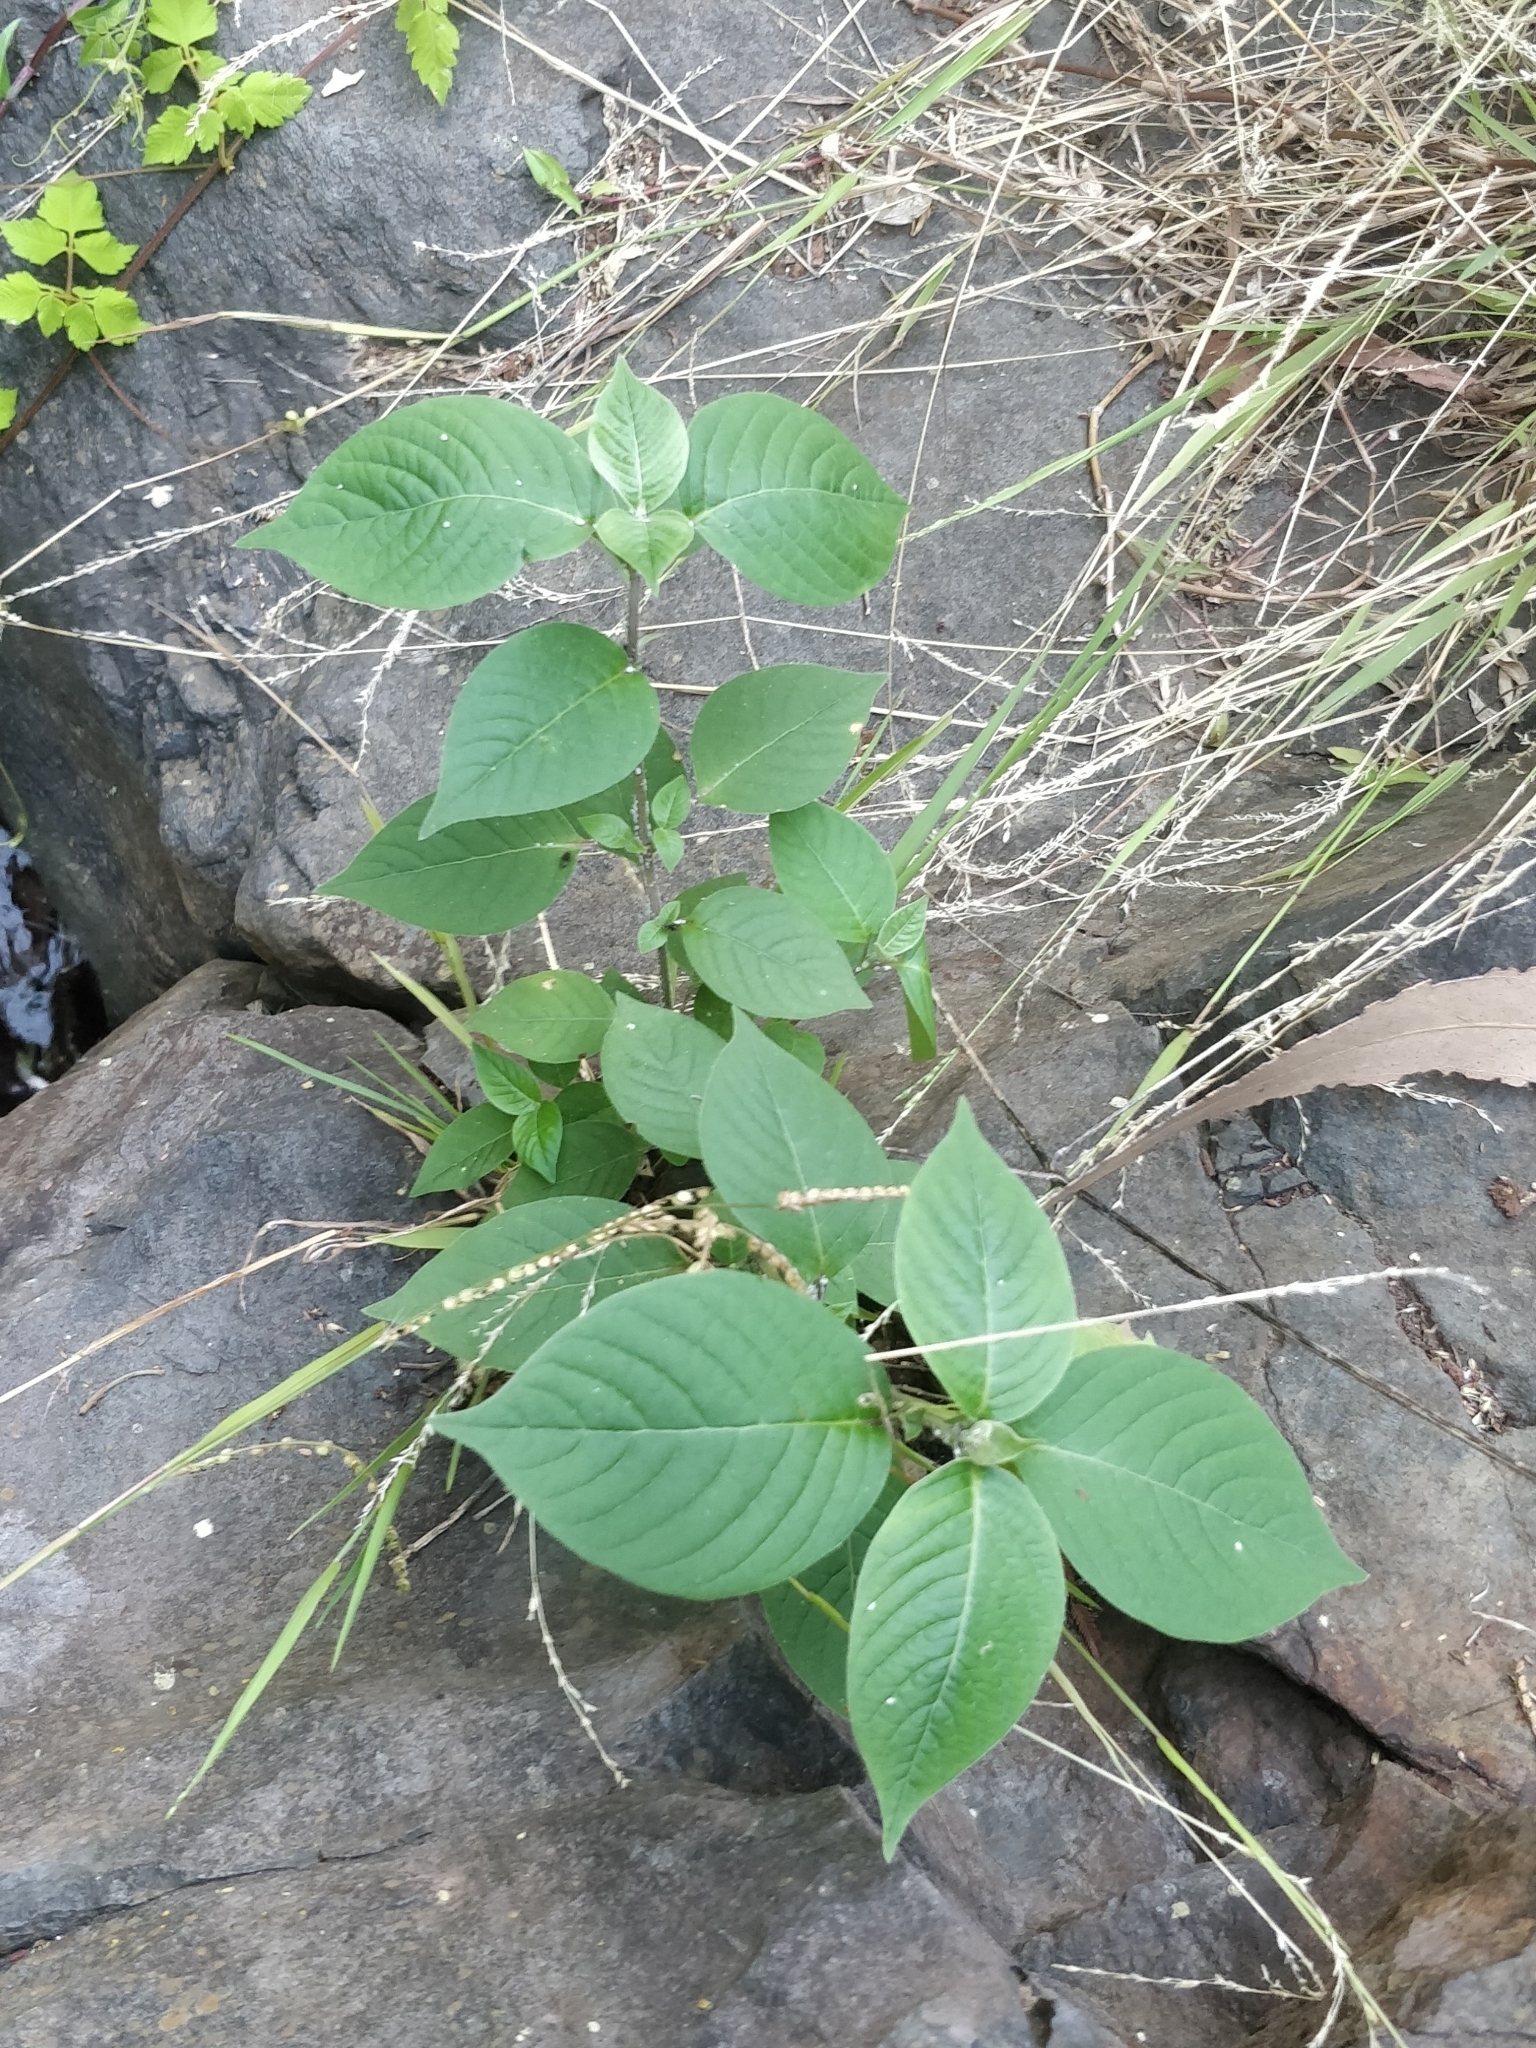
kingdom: Plantae
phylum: Tracheophyta
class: Magnoliopsida
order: Caryophyllales
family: Amaranthaceae
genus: Achyranthes
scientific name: Achyranthes aspera
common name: Devil's horsewhip
